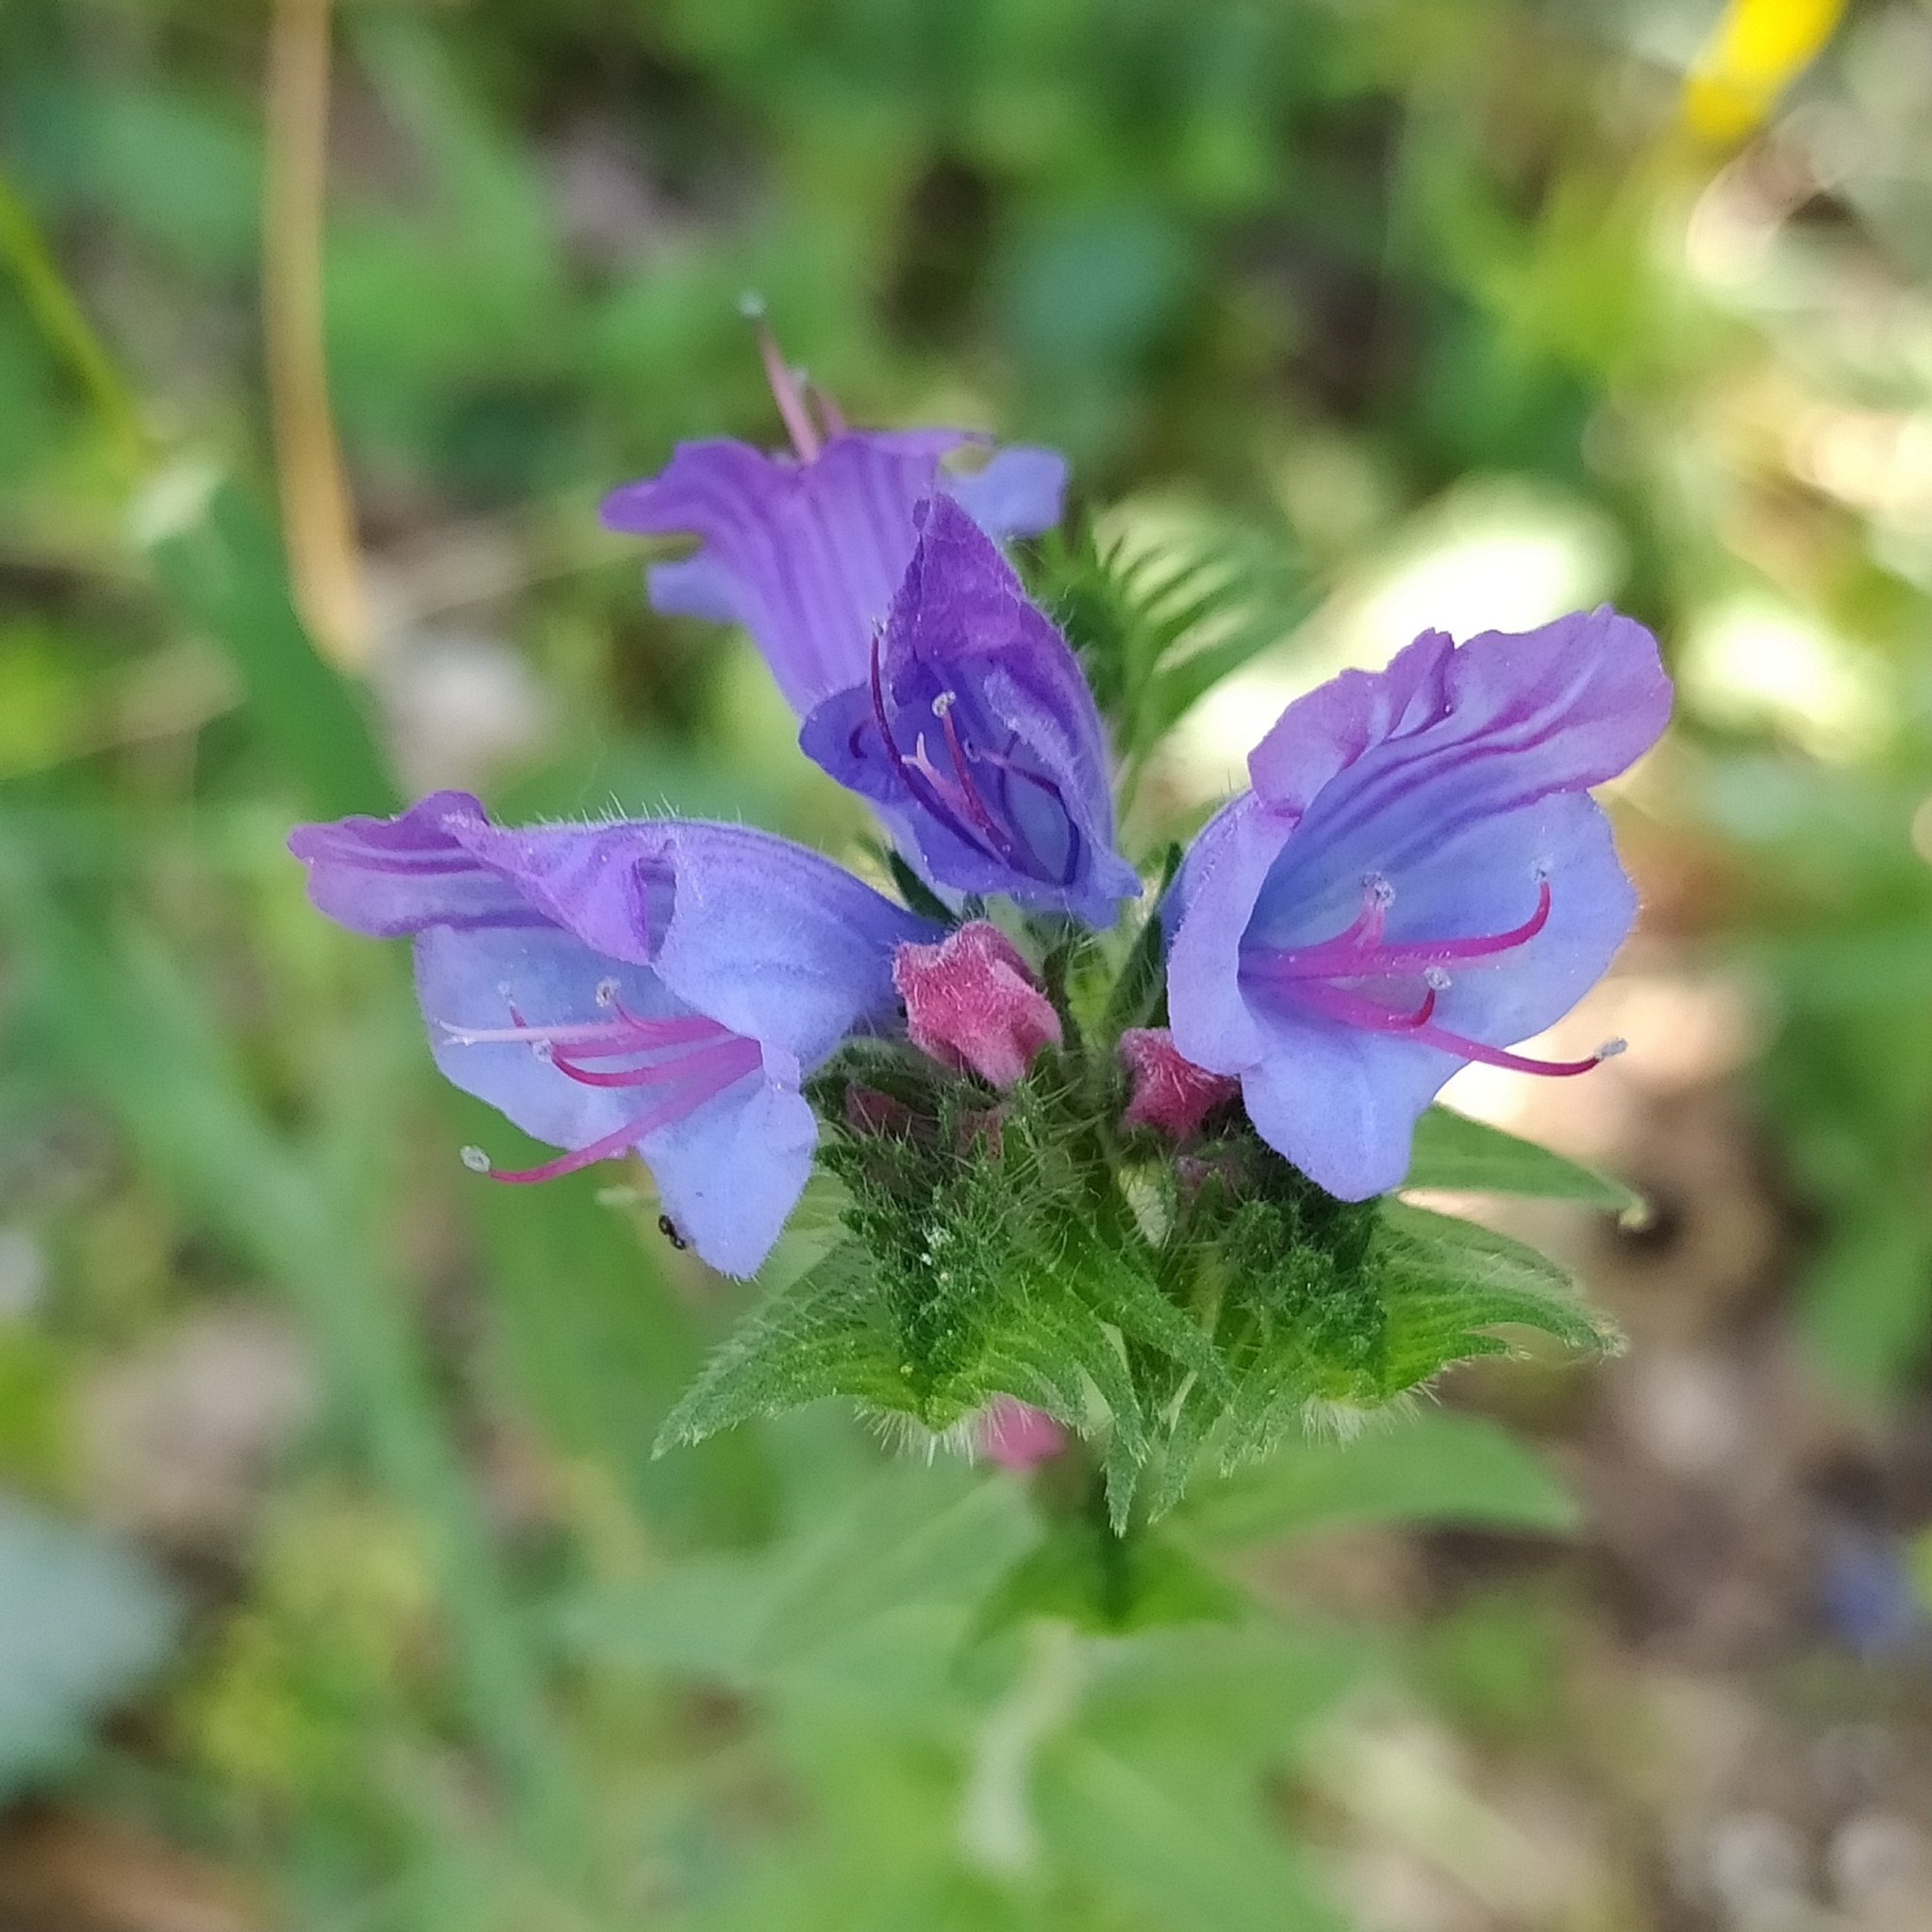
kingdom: Plantae
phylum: Tracheophyta
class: Magnoliopsida
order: Boraginales
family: Boraginaceae
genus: Echium
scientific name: Echium vulgare
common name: Common viper's bugloss
